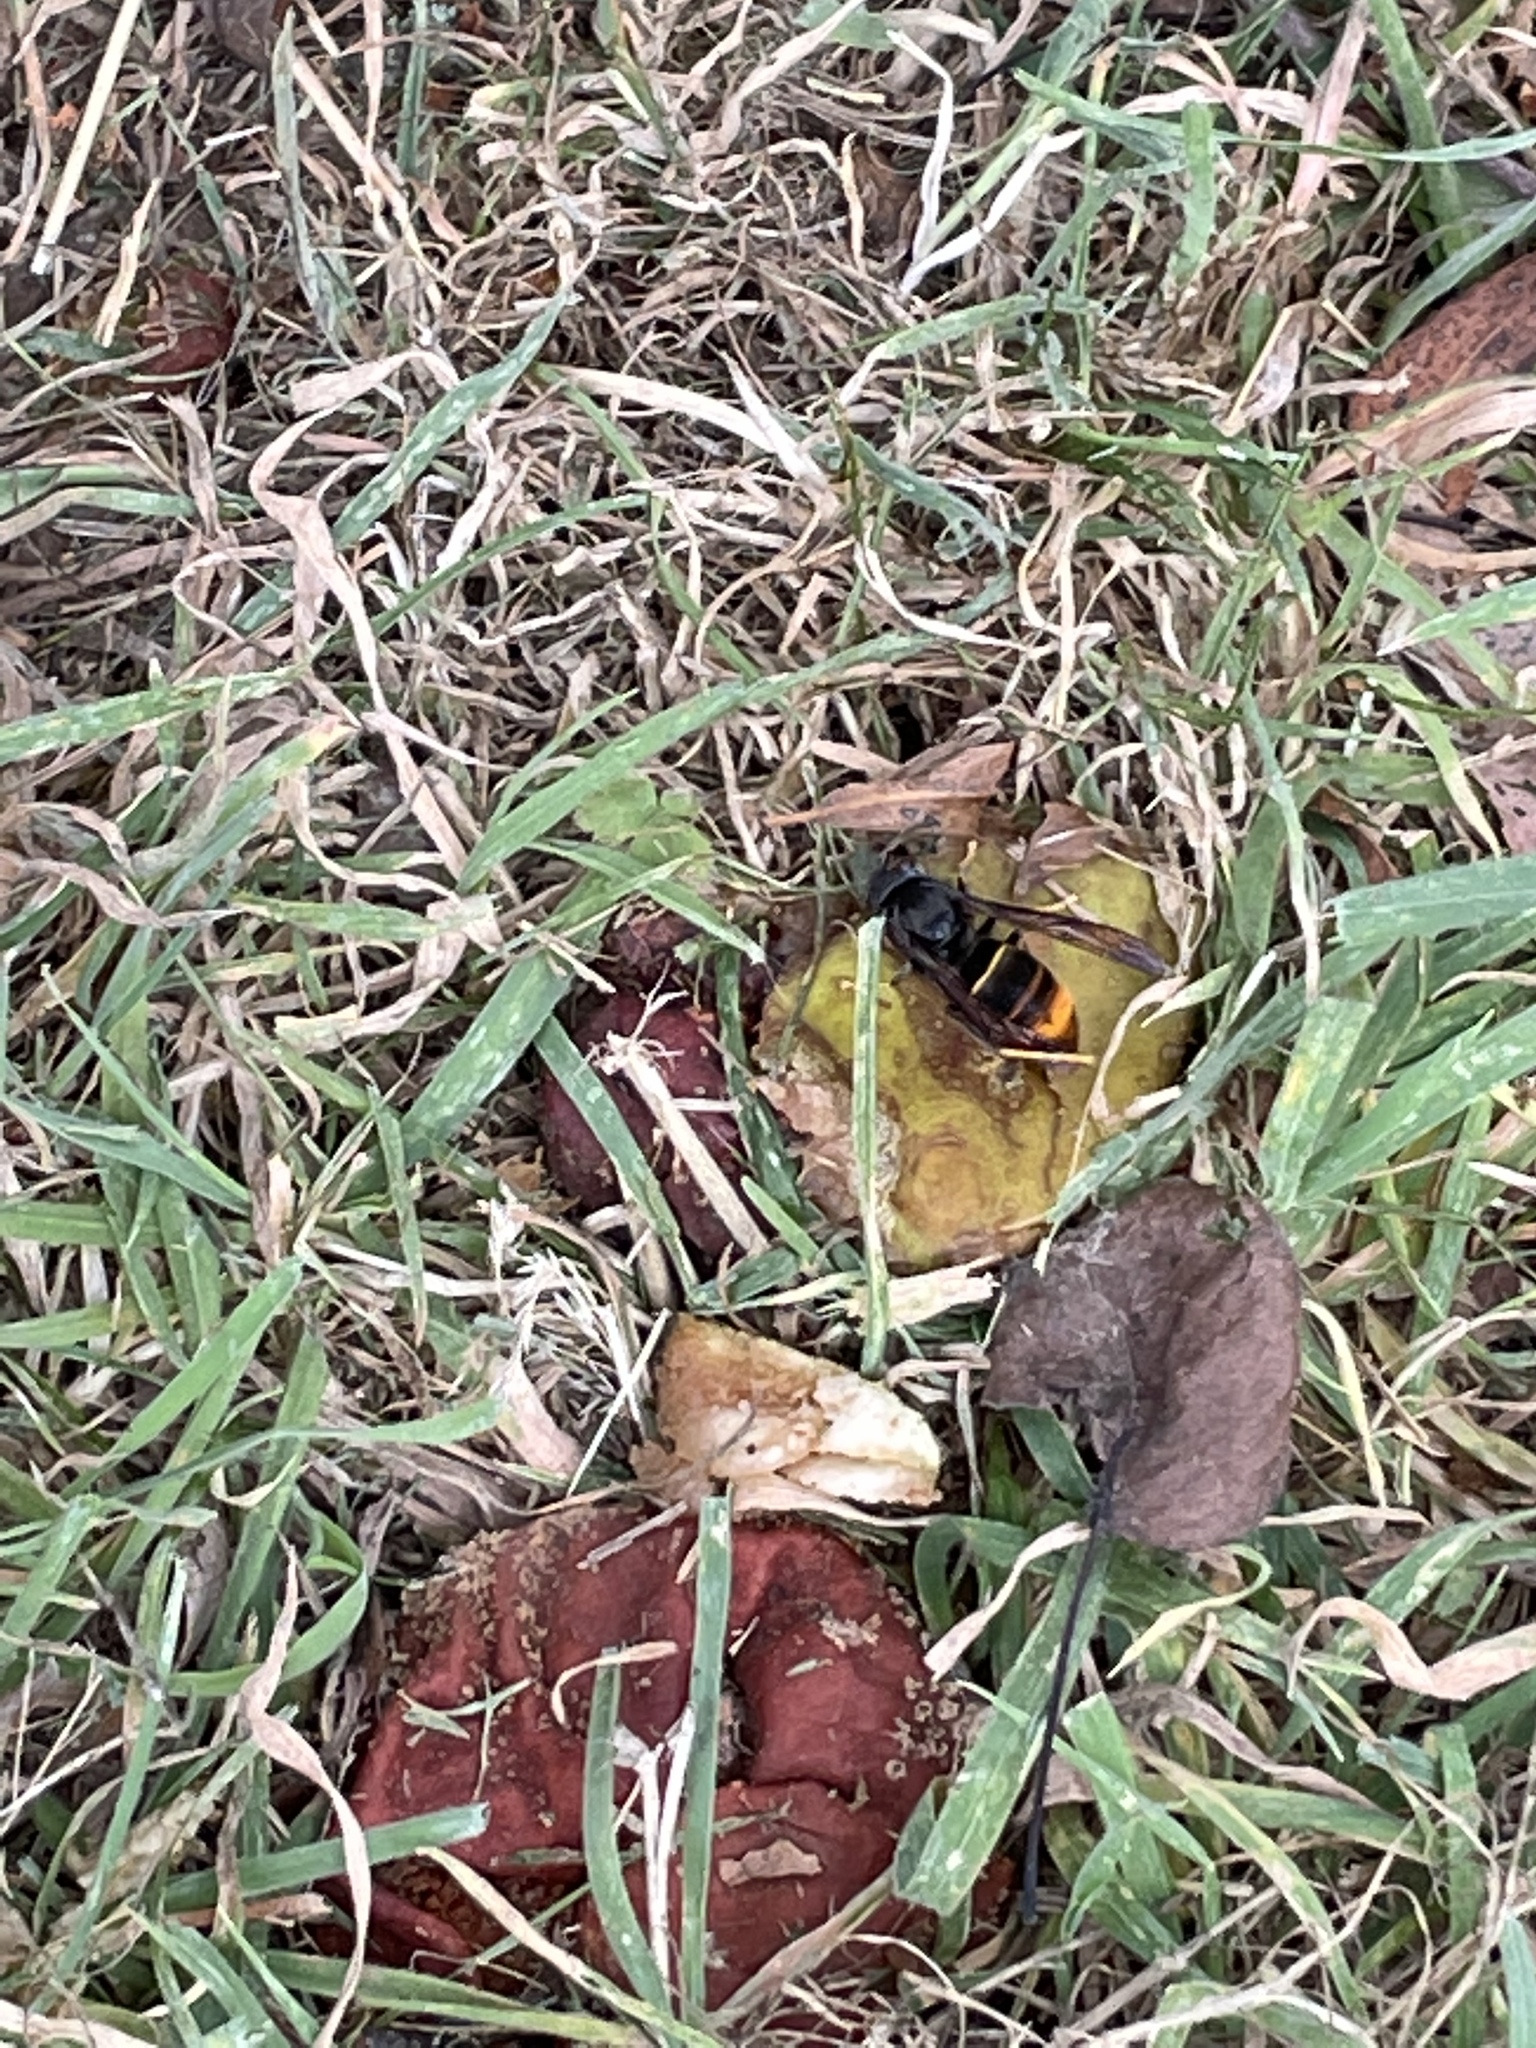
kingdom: Animalia
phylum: Arthropoda
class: Insecta
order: Hymenoptera
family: Vespidae
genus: Vespa
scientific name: Vespa velutina
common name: Asian hornet
